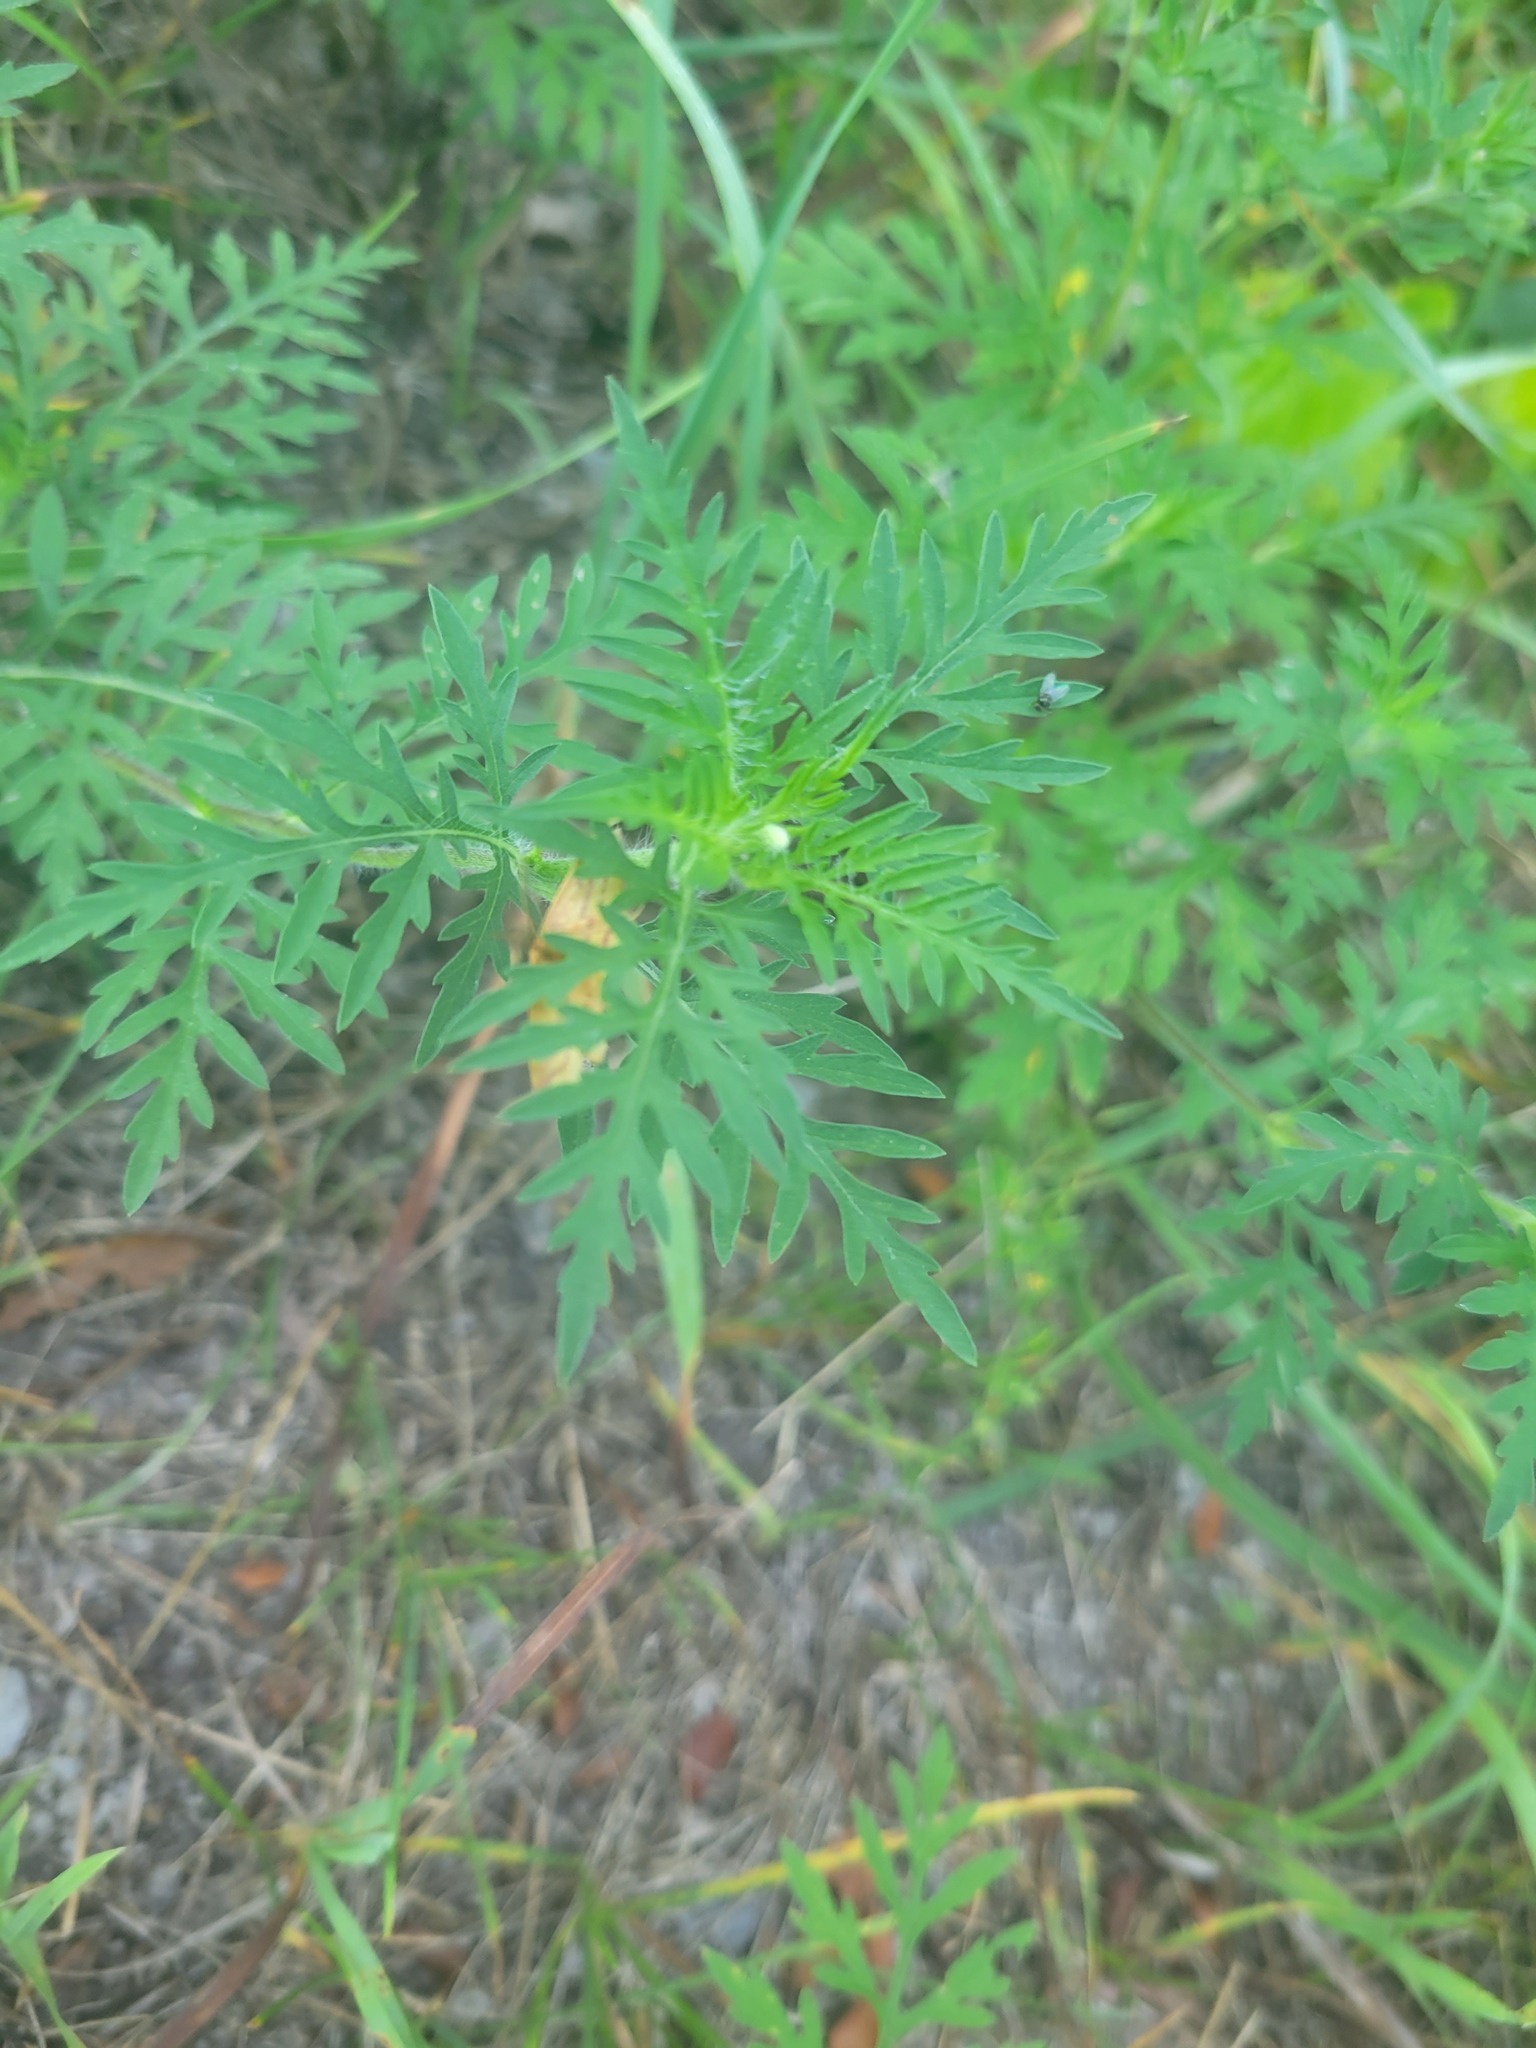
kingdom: Plantae
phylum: Tracheophyta
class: Magnoliopsida
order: Asterales
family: Asteraceae
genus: Ambrosia
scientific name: Ambrosia artemisiifolia
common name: Annual ragweed
